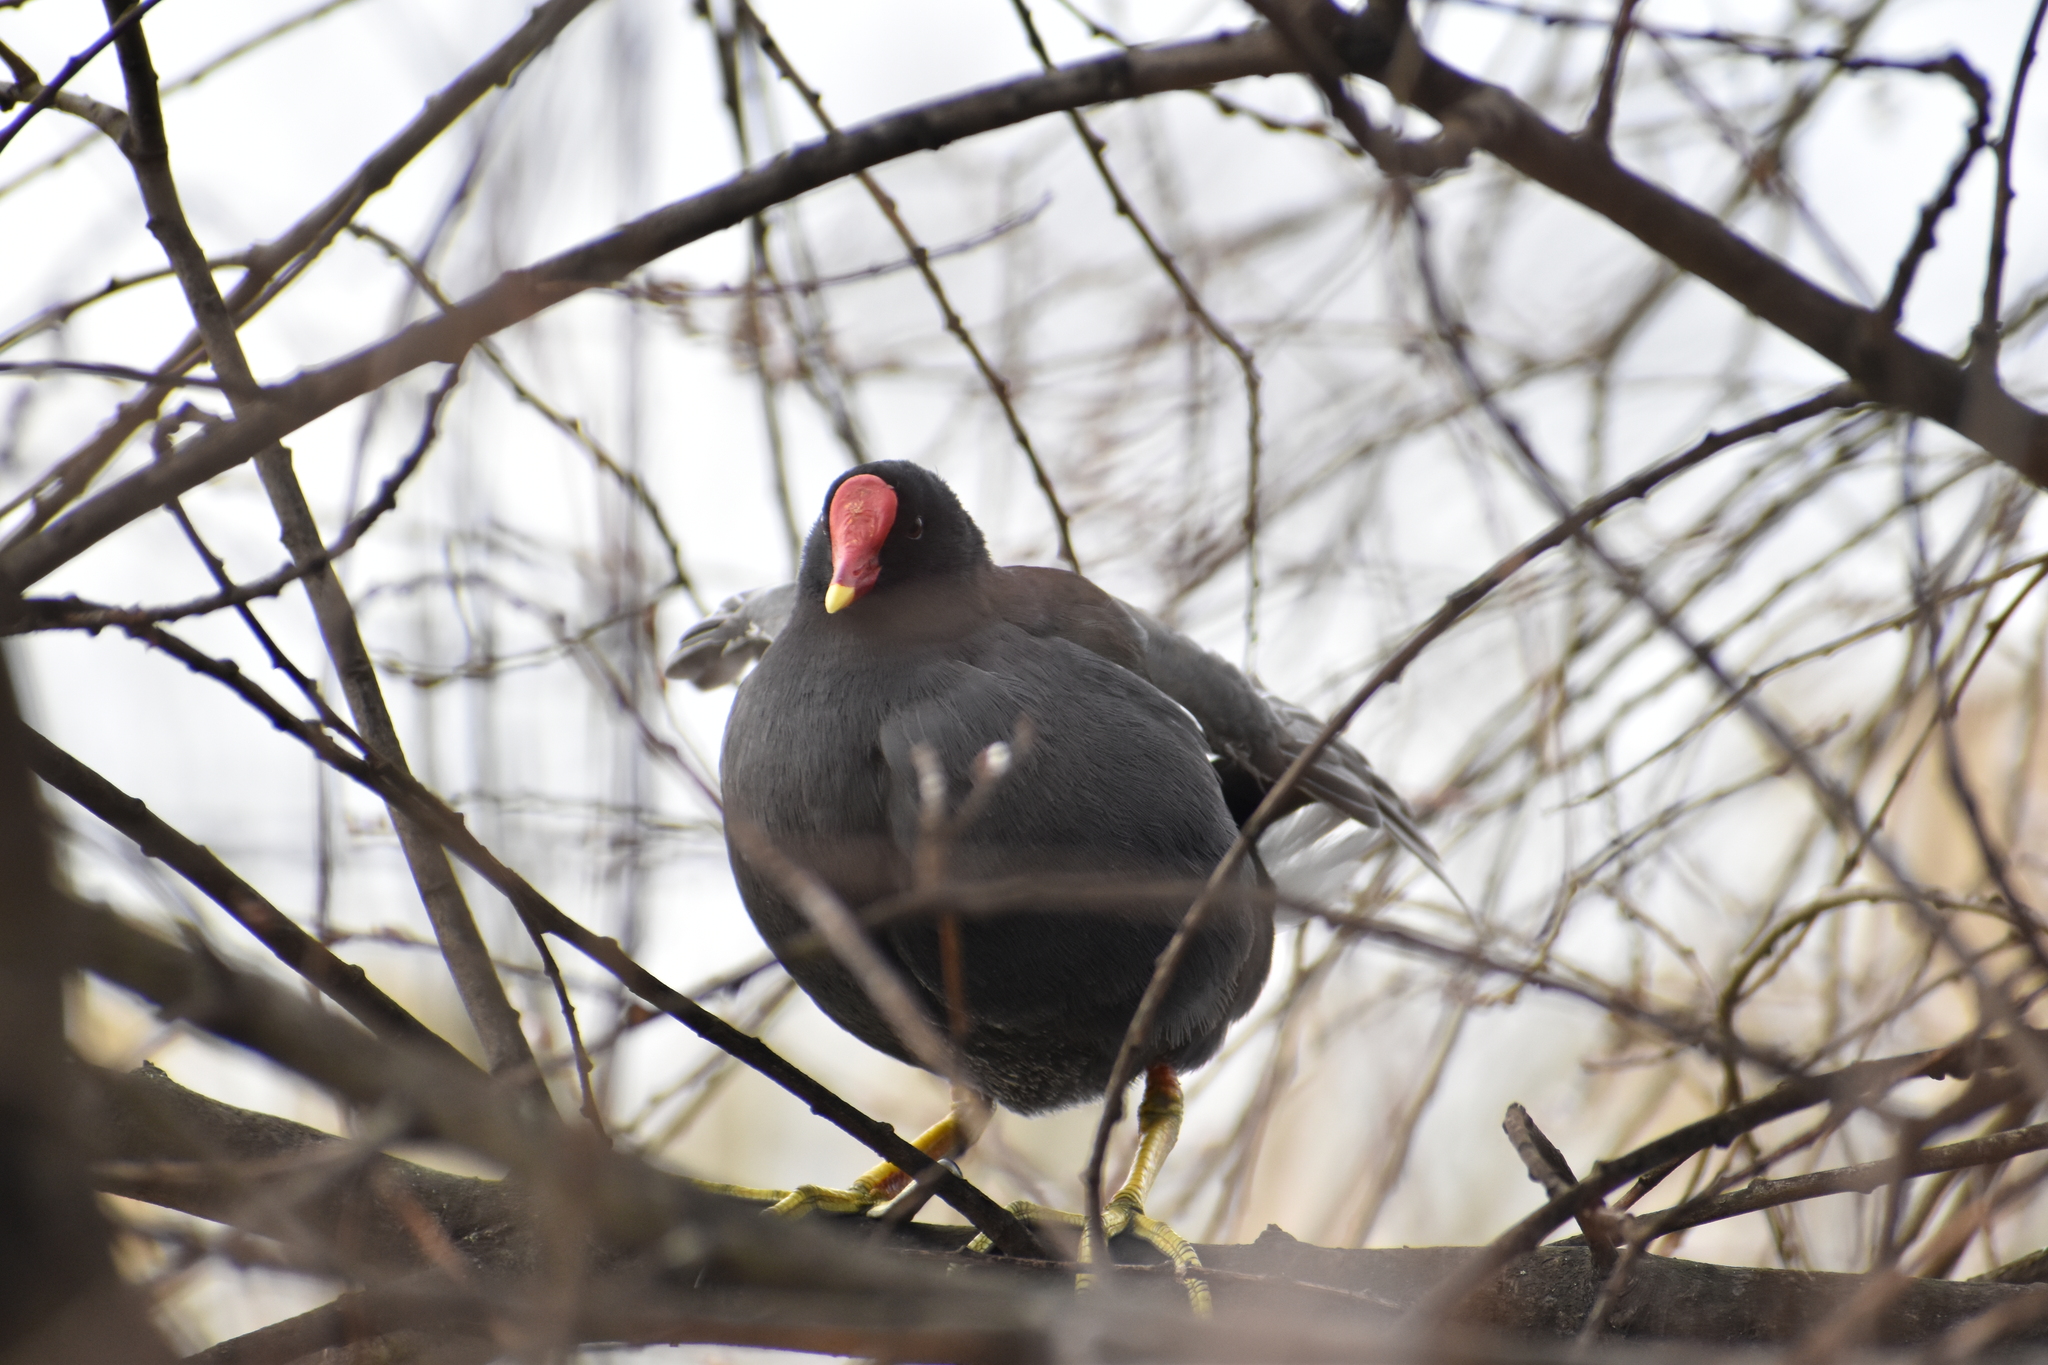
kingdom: Animalia
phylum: Chordata
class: Aves
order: Gruiformes
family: Rallidae
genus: Gallinula
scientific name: Gallinula chloropus
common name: Common moorhen
